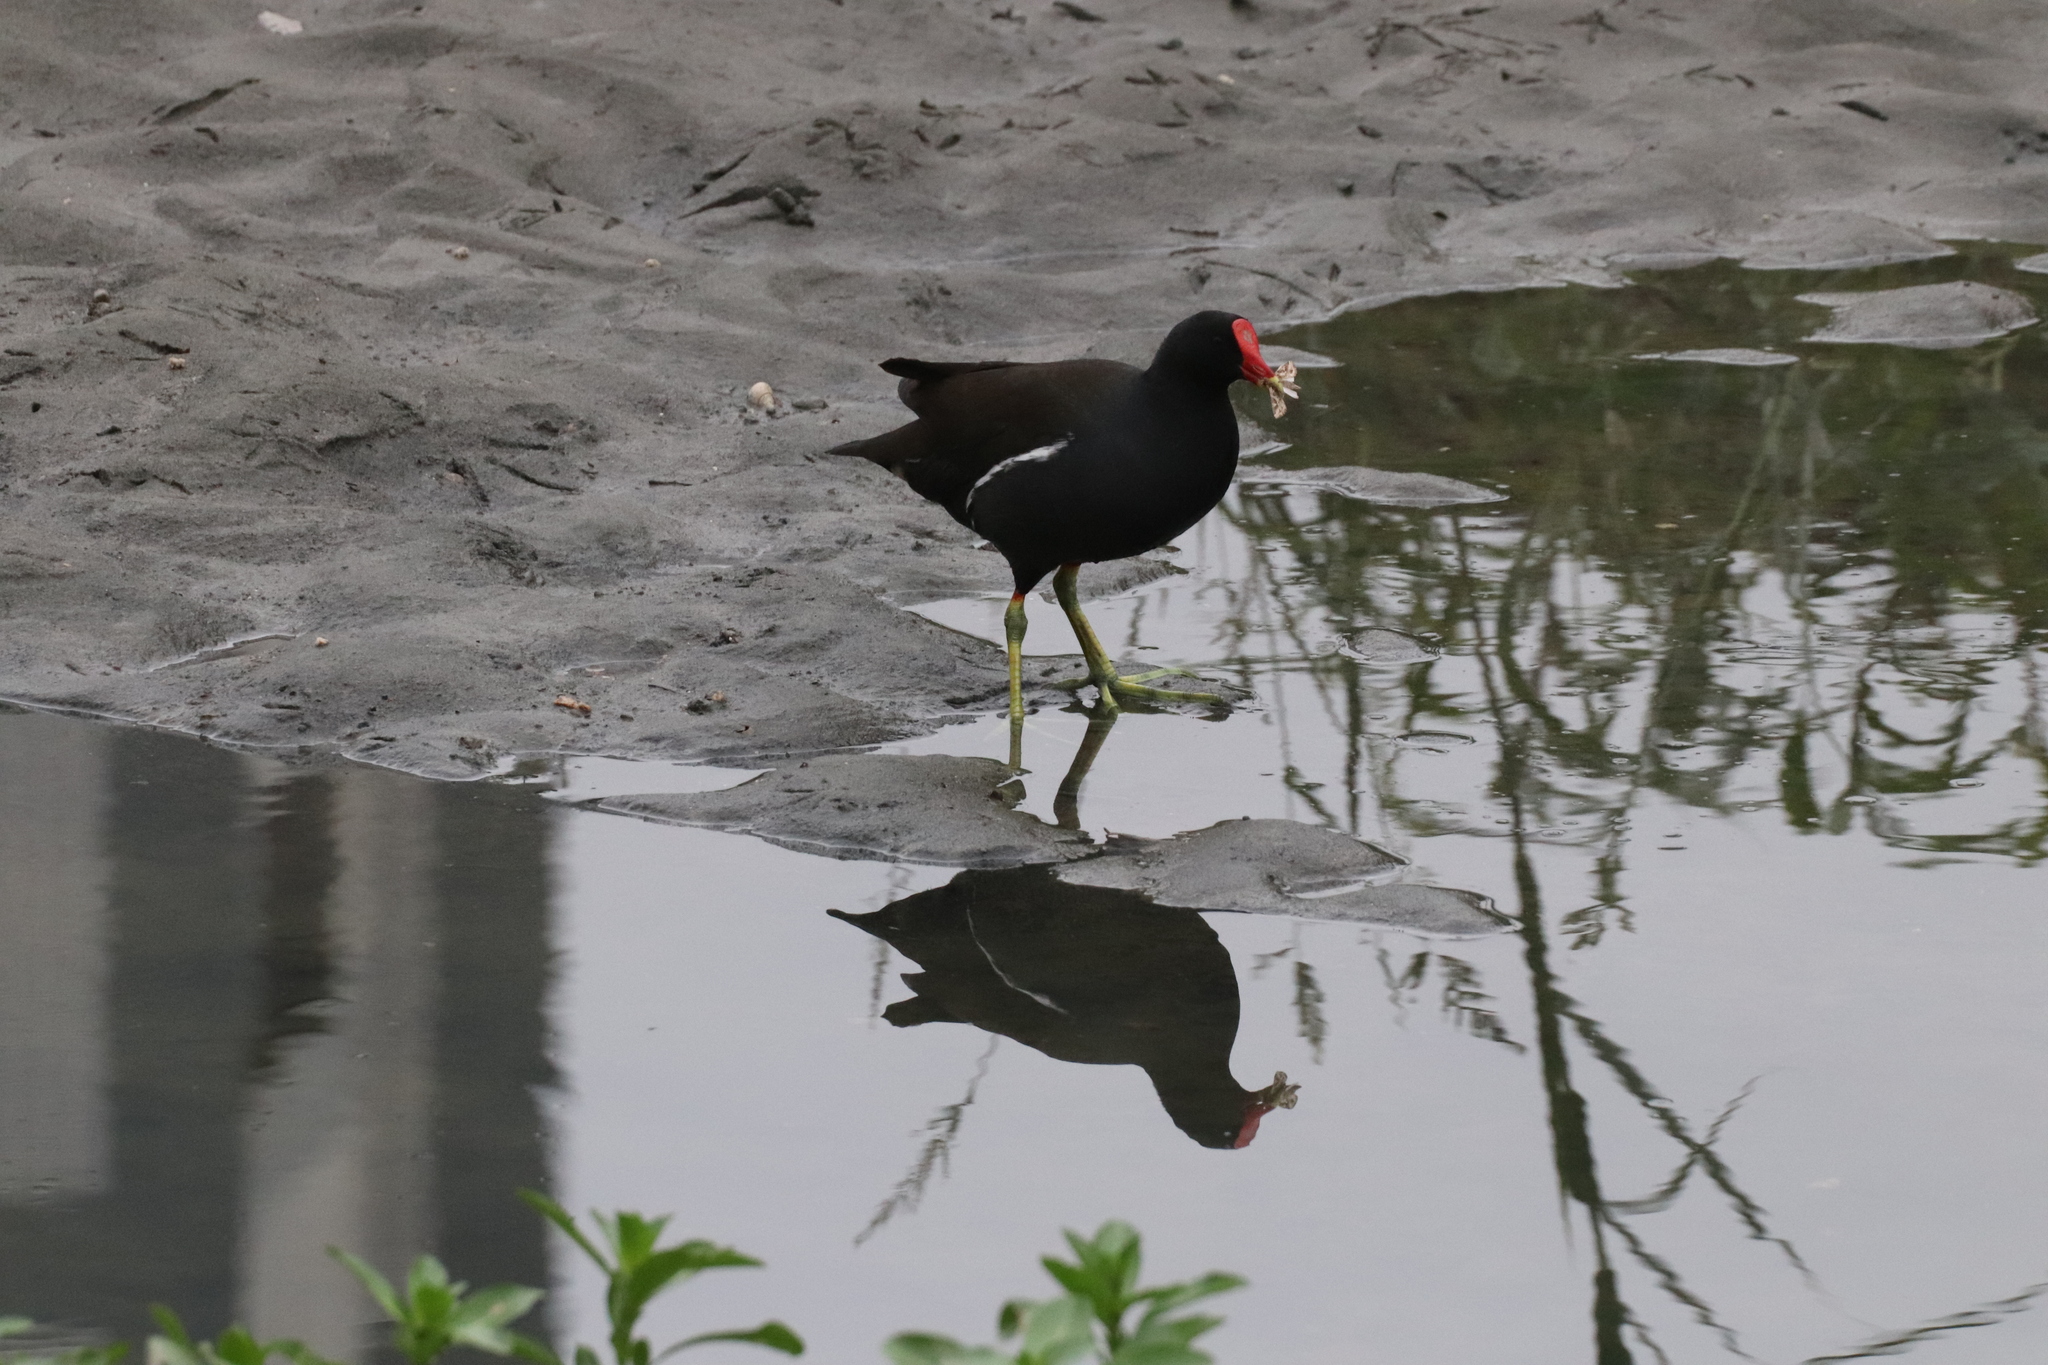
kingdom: Animalia
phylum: Chordata
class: Aves
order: Gruiformes
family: Rallidae
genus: Gallinula
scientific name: Gallinula chloropus
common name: Common moorhen
